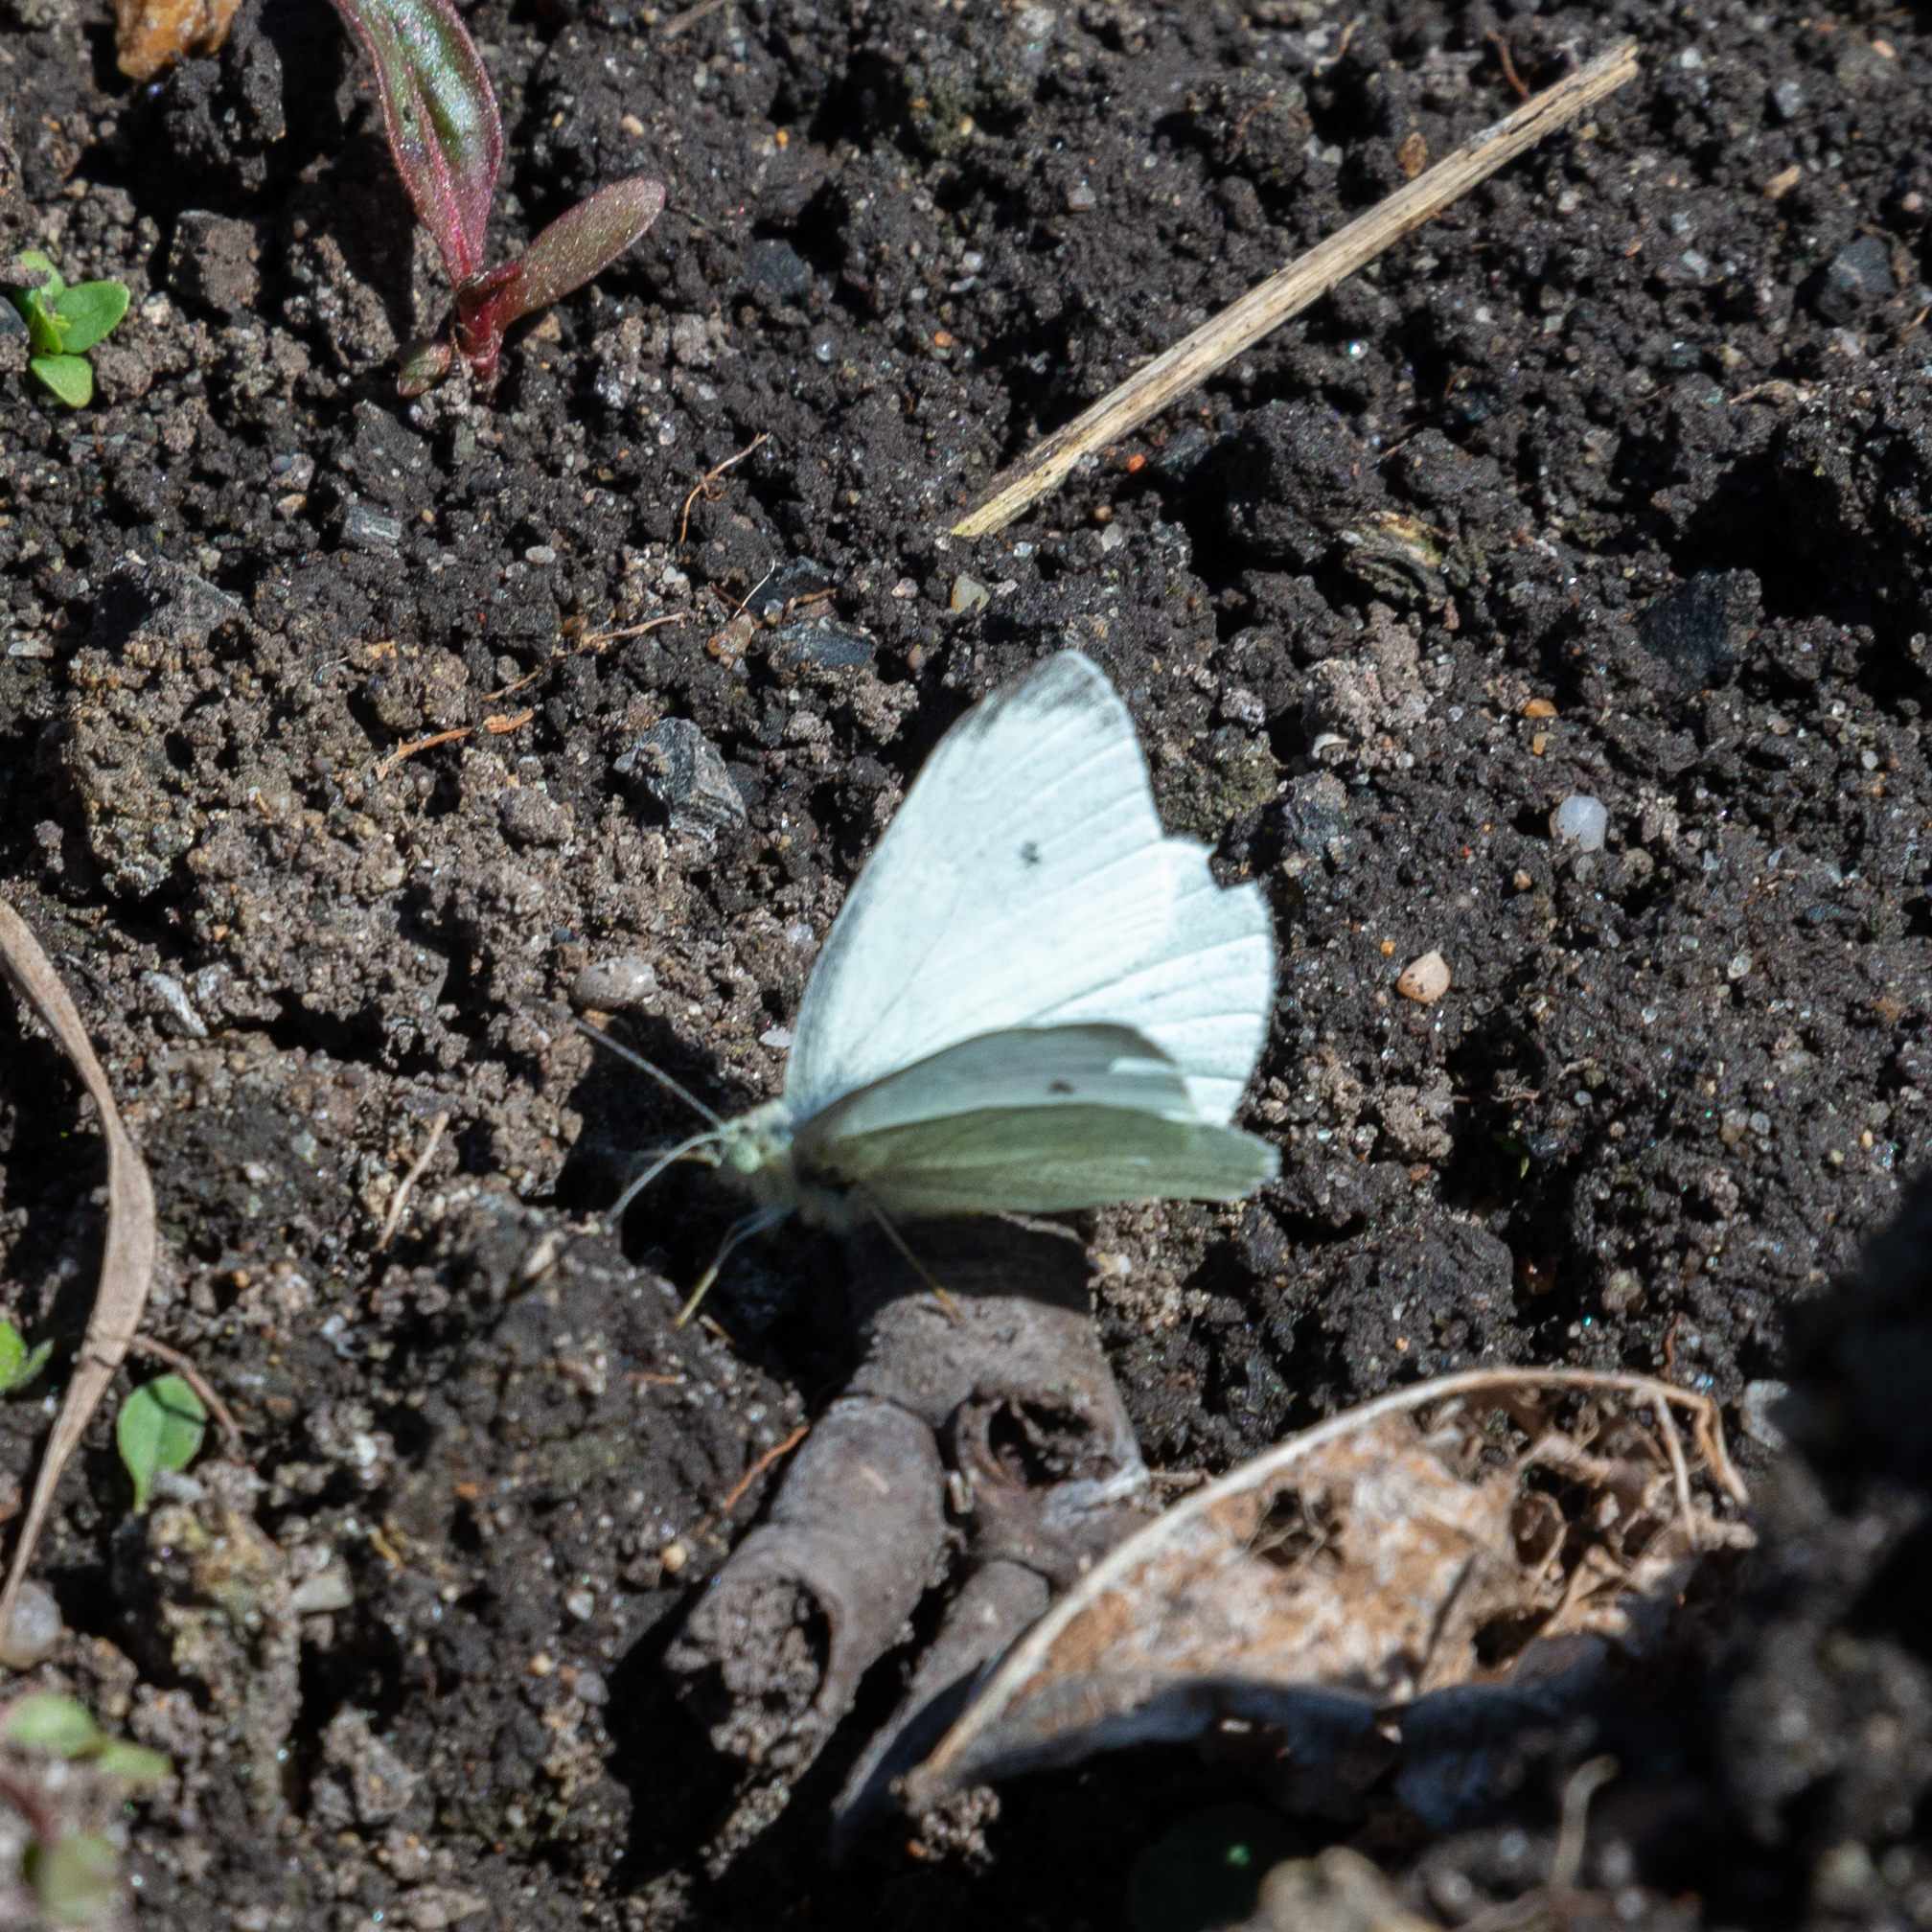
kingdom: Animalia
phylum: Arthropoda
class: Insecta
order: Lepidoptera
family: Pieridae
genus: Pieris
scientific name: Pieris rapae
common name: Small white
